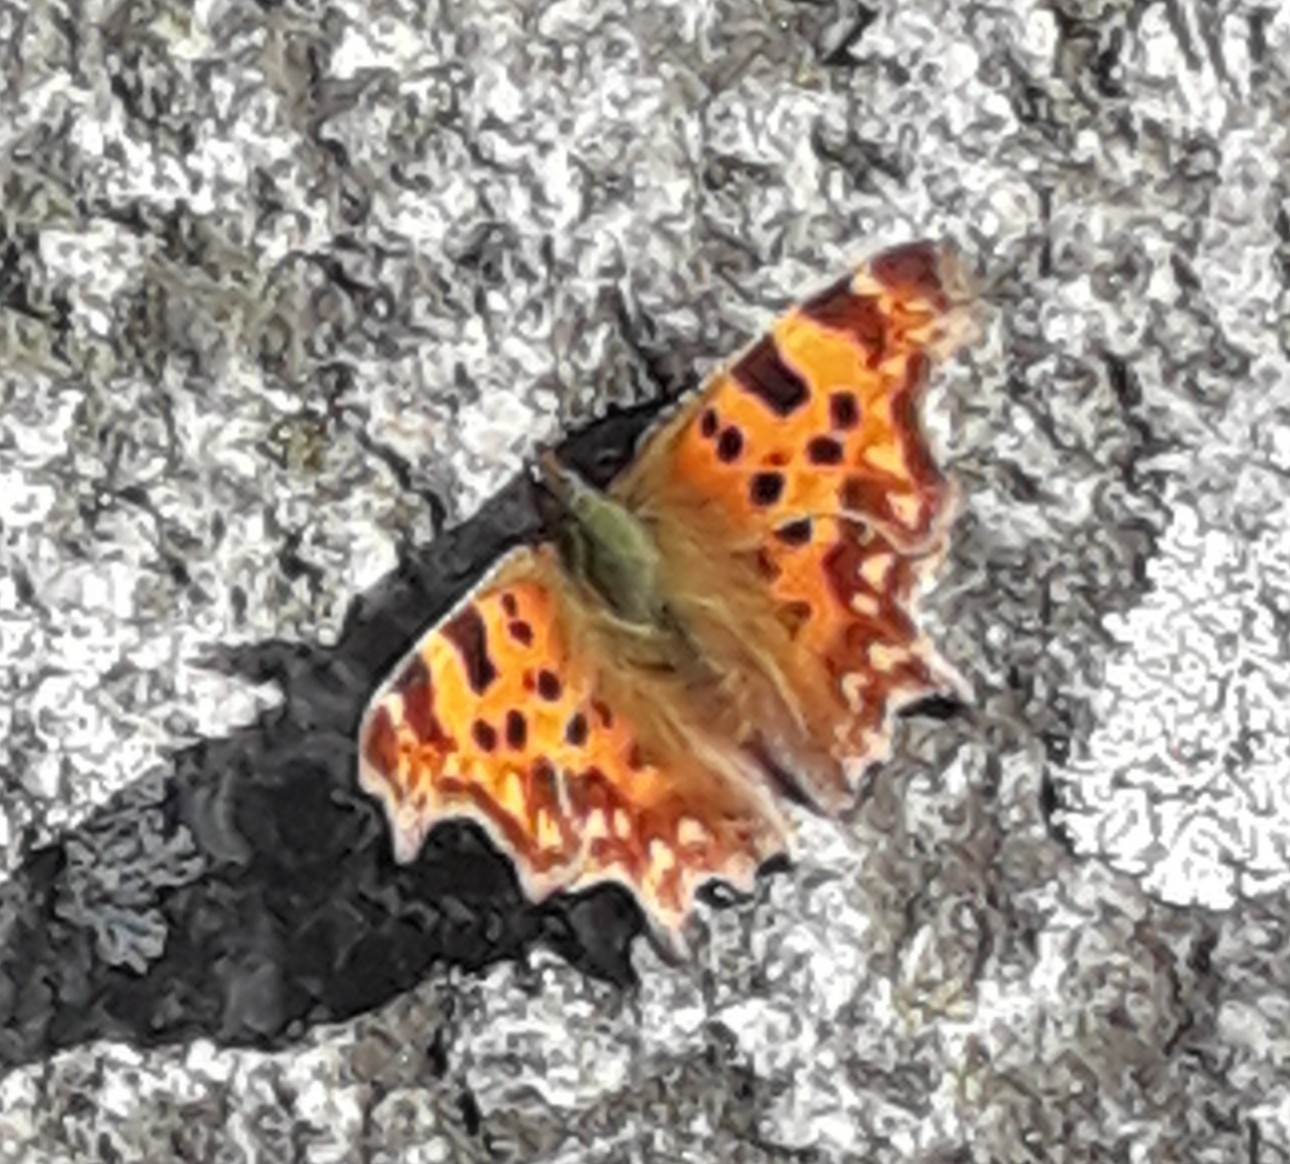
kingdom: Animalia
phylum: Arthropoda
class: Insecta
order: Lepidoptera
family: Nymphalidae
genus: Polygonia
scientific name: Polygonia c-album
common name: Comma
